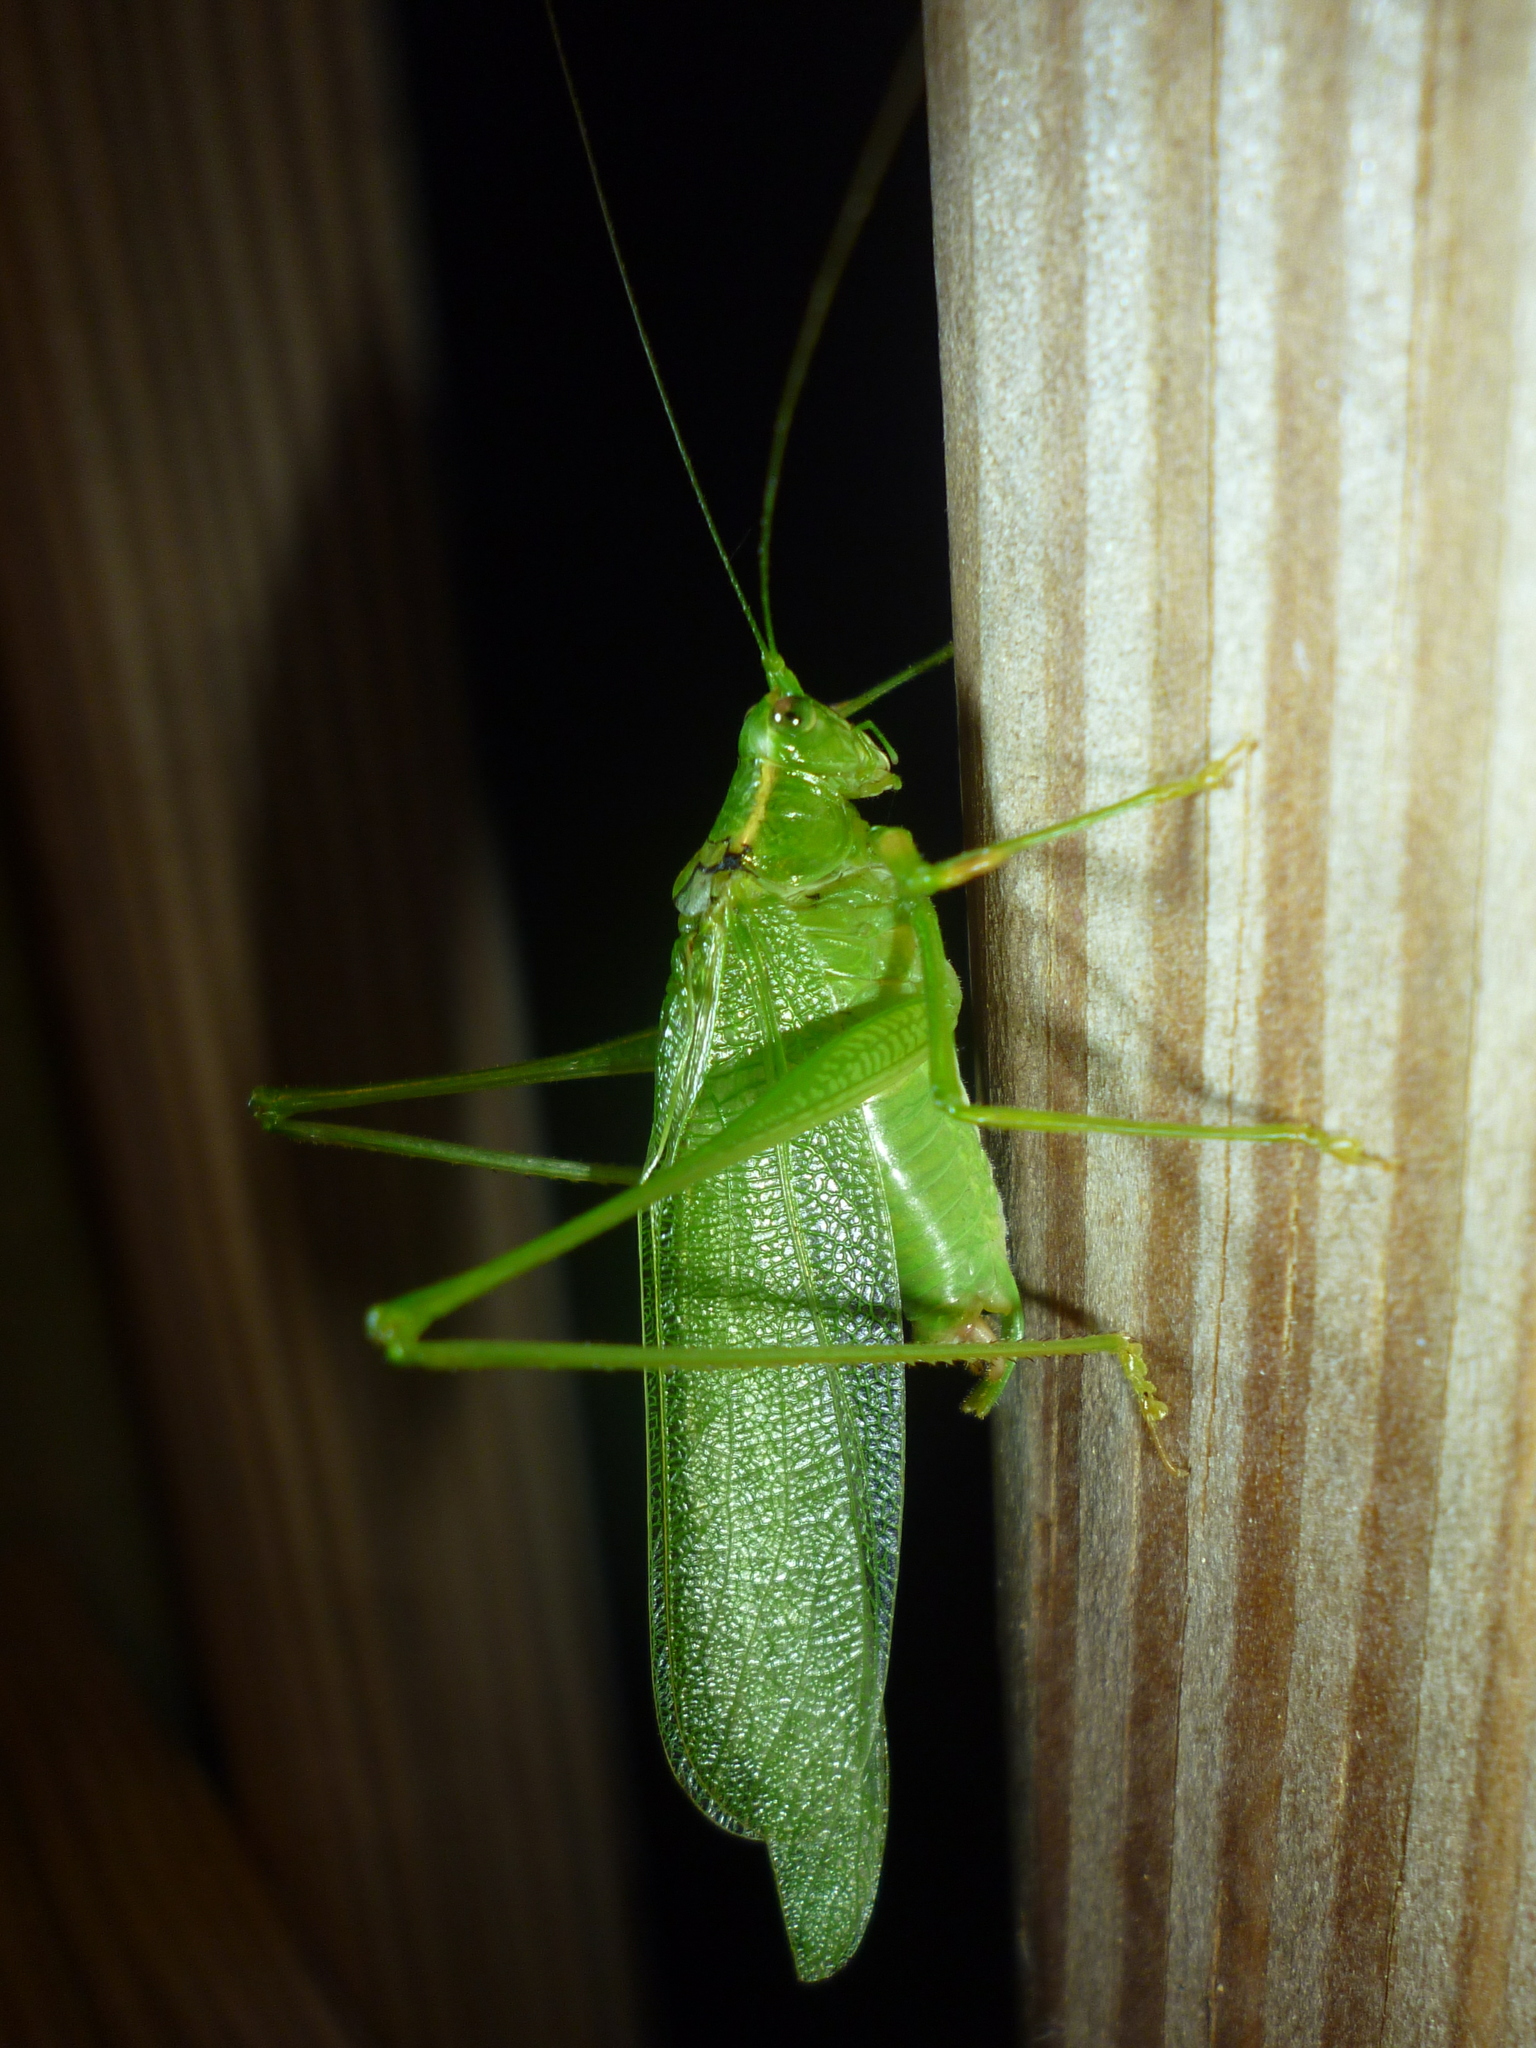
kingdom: Animalia
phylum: Arthropoda
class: Insecta
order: Orthoptera
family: Tettigoniidae
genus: Scudderia
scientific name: Scudderia septentrionalis
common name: Northern bush-katydid
